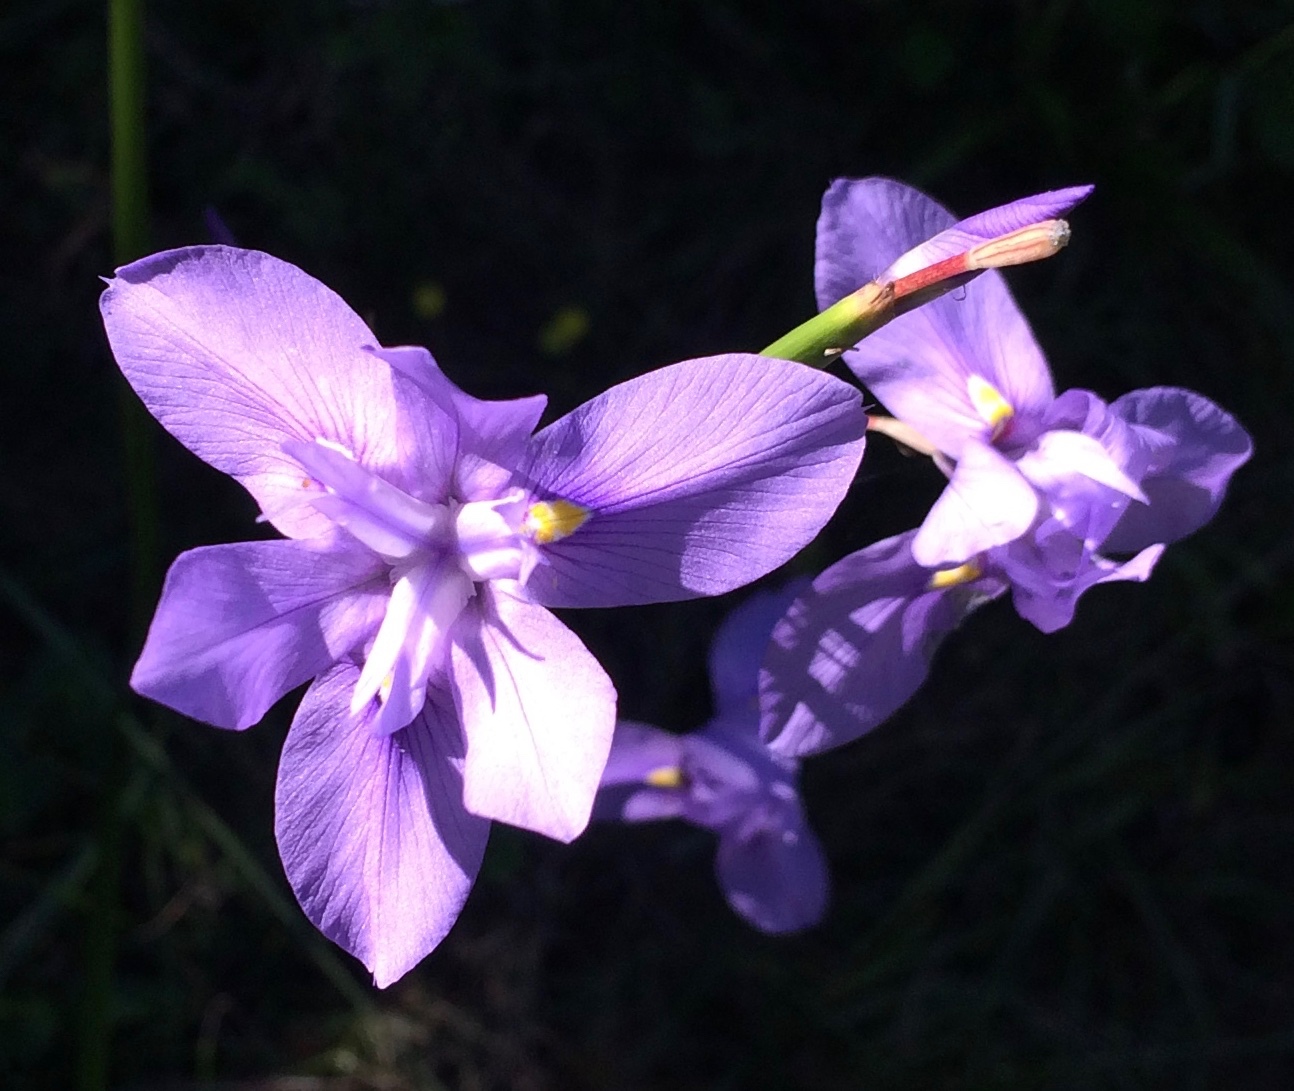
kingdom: Plantae
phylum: Tracheophyta
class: Liliopsida
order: Asparagales
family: Iridaceae
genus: Moraea
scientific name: Moraea polystachya
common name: Blue-tulip
